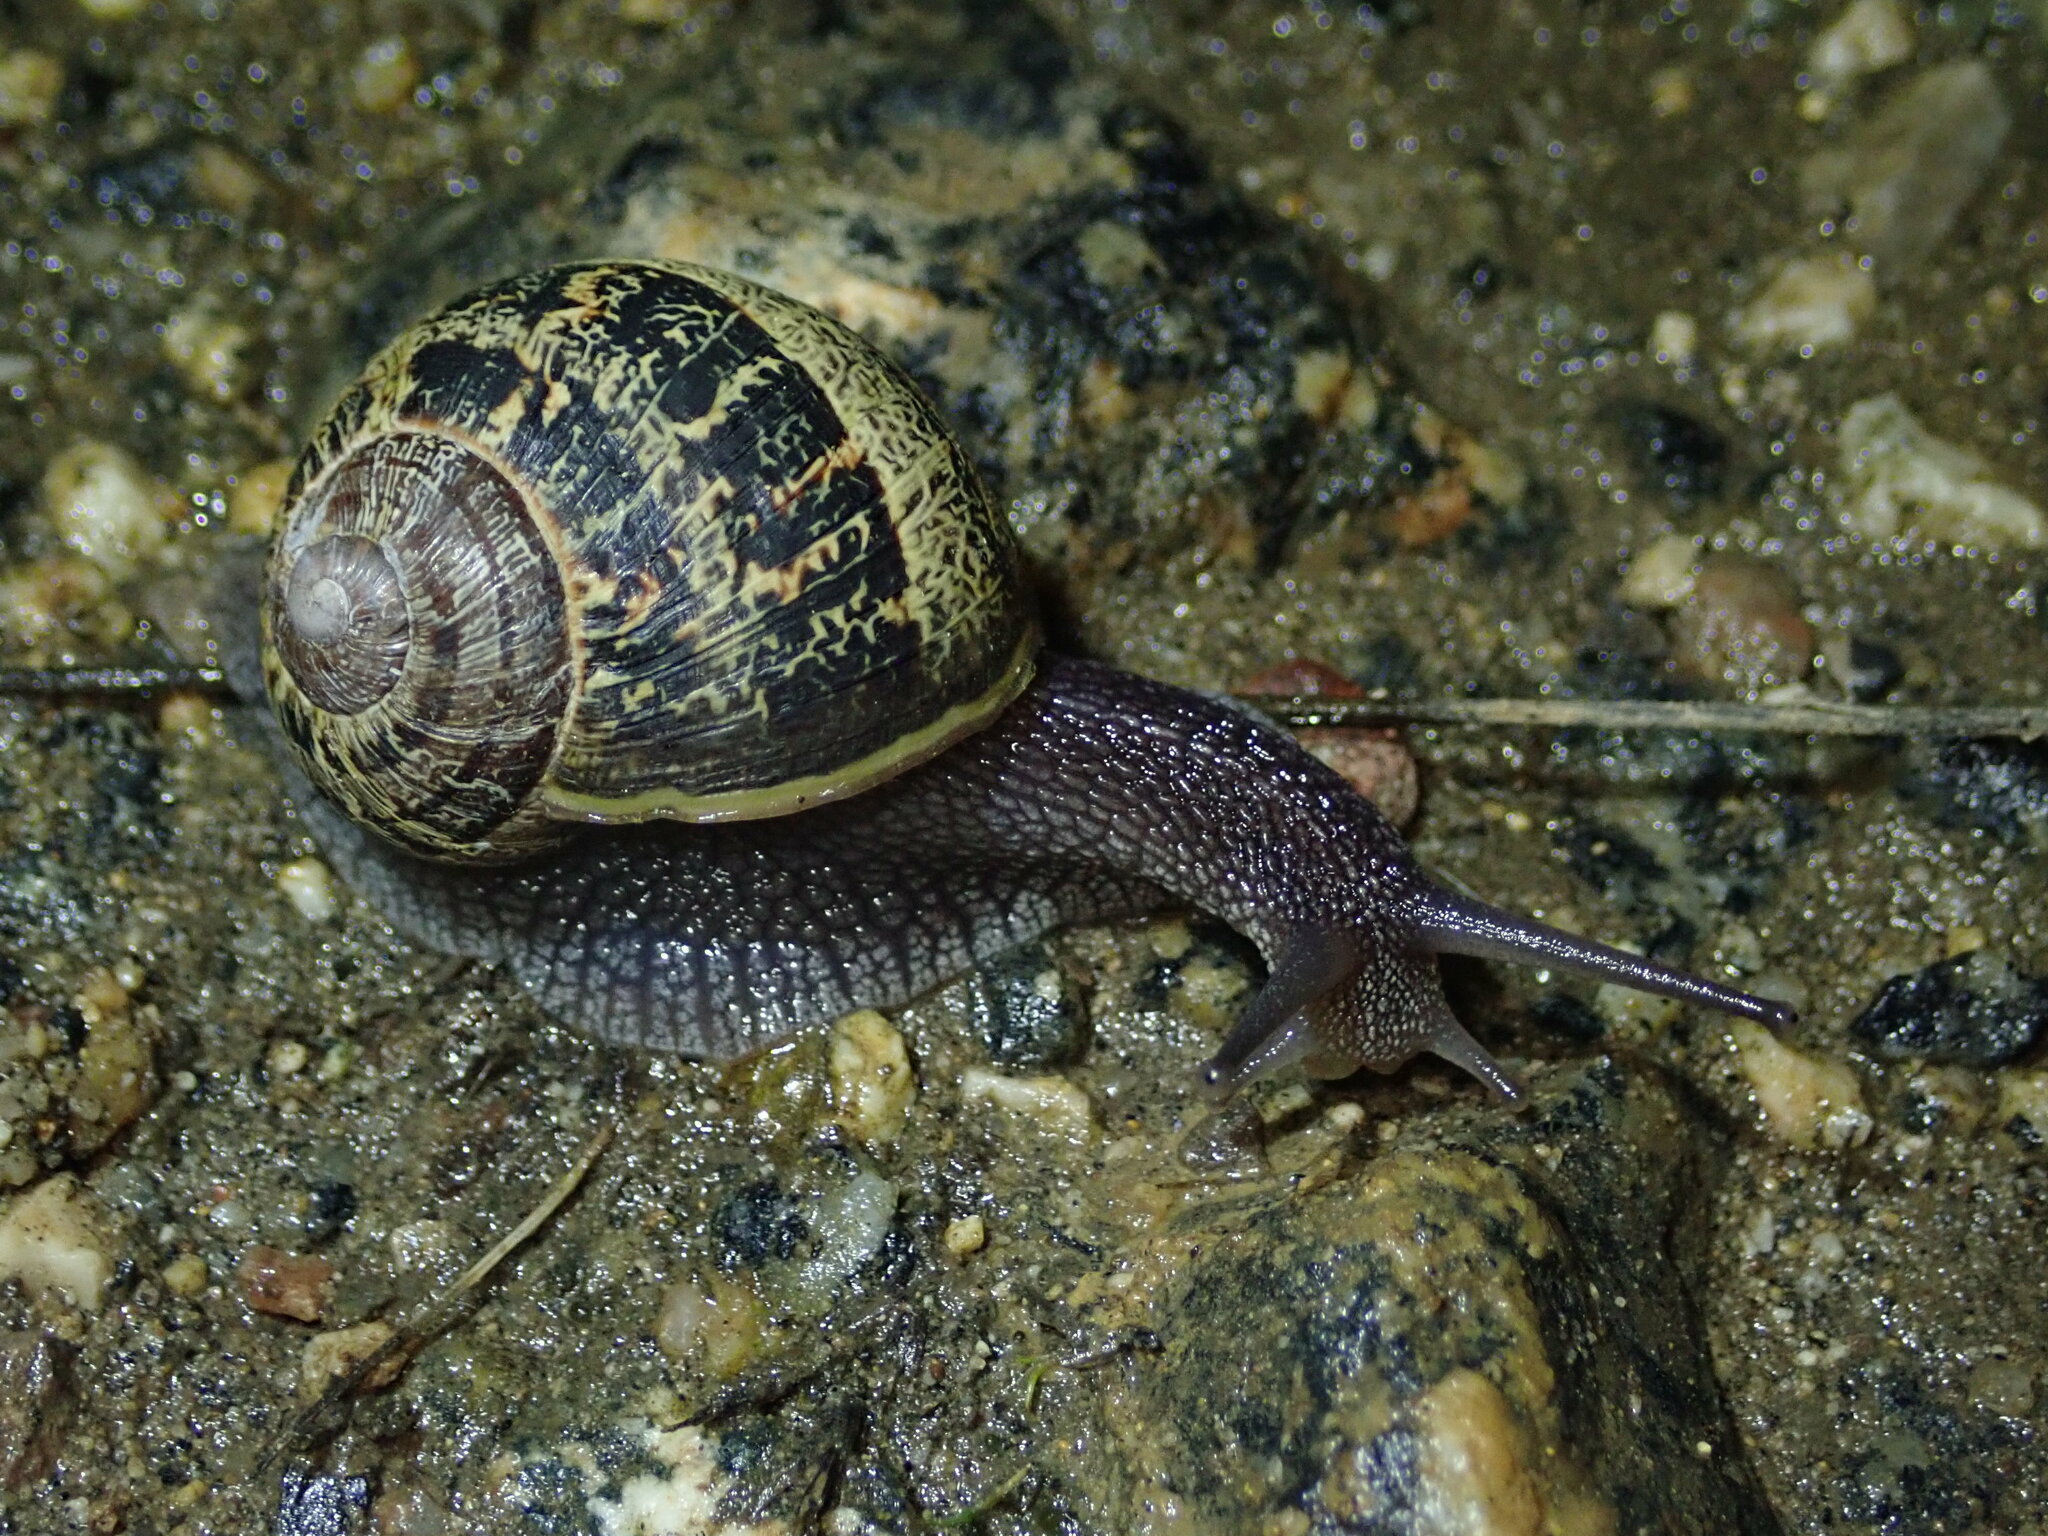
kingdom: Animalia
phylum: Mollusca
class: Gastropoda
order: Stylommatophora
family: Helicidae
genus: Cornu
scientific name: Cornu aspersum
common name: Brown garden snail
